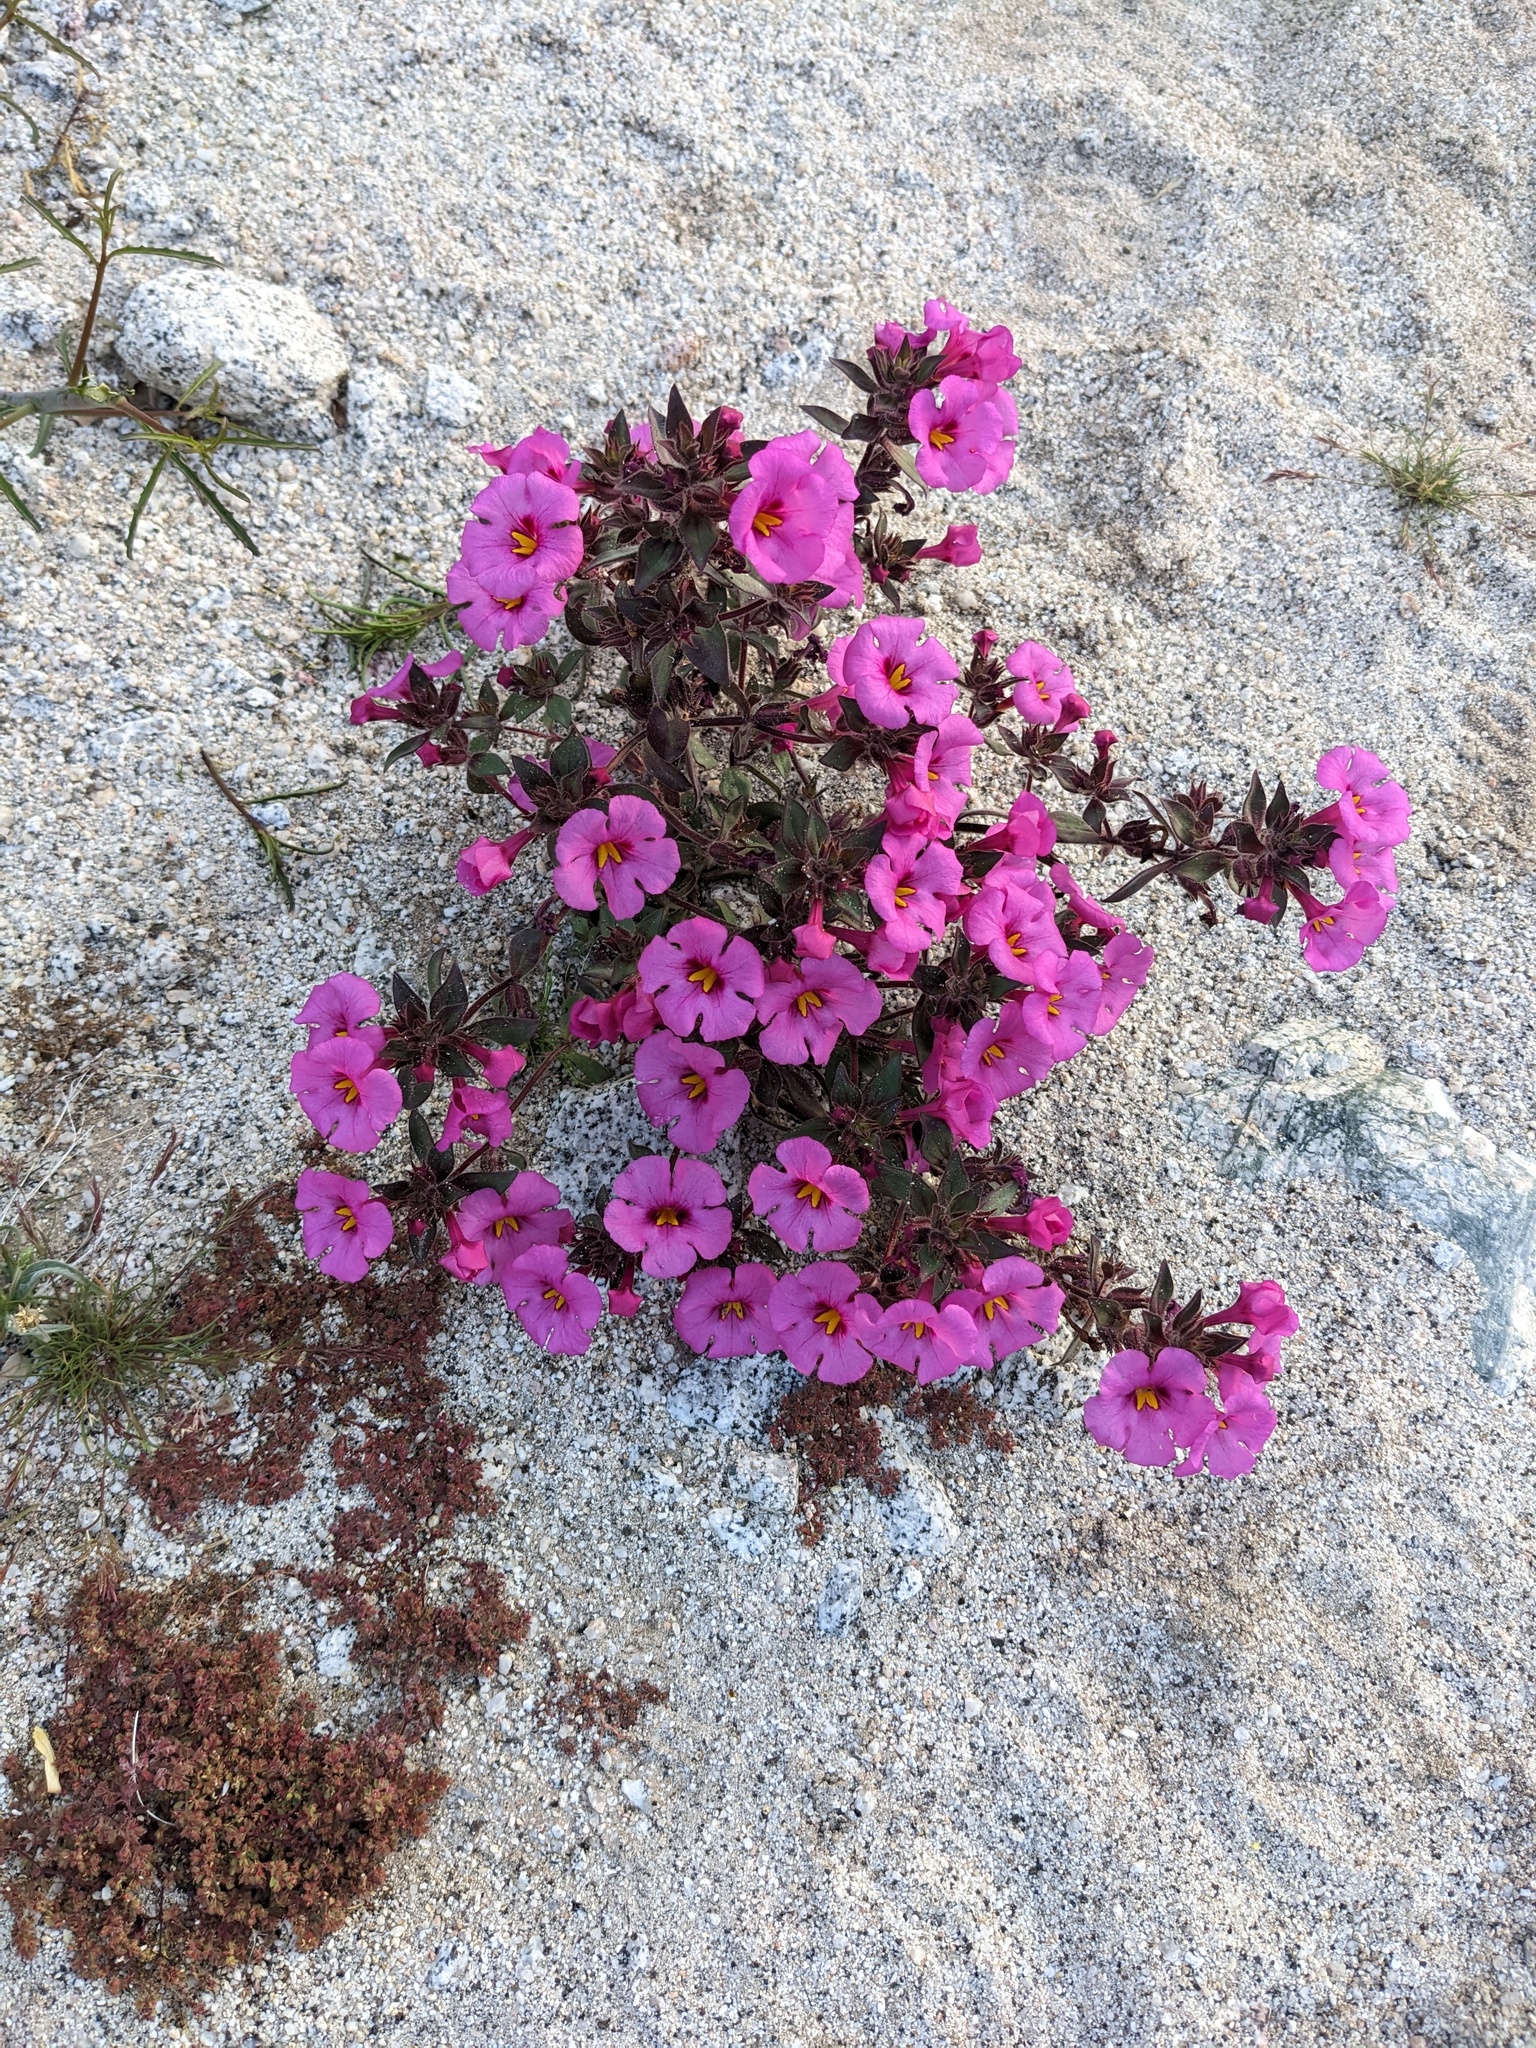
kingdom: Plantae
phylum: Tracheophyta
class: Magnoliopsida
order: Lamiales
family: Phrymaceae
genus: Diplacus
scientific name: Diplacus bigelovii
